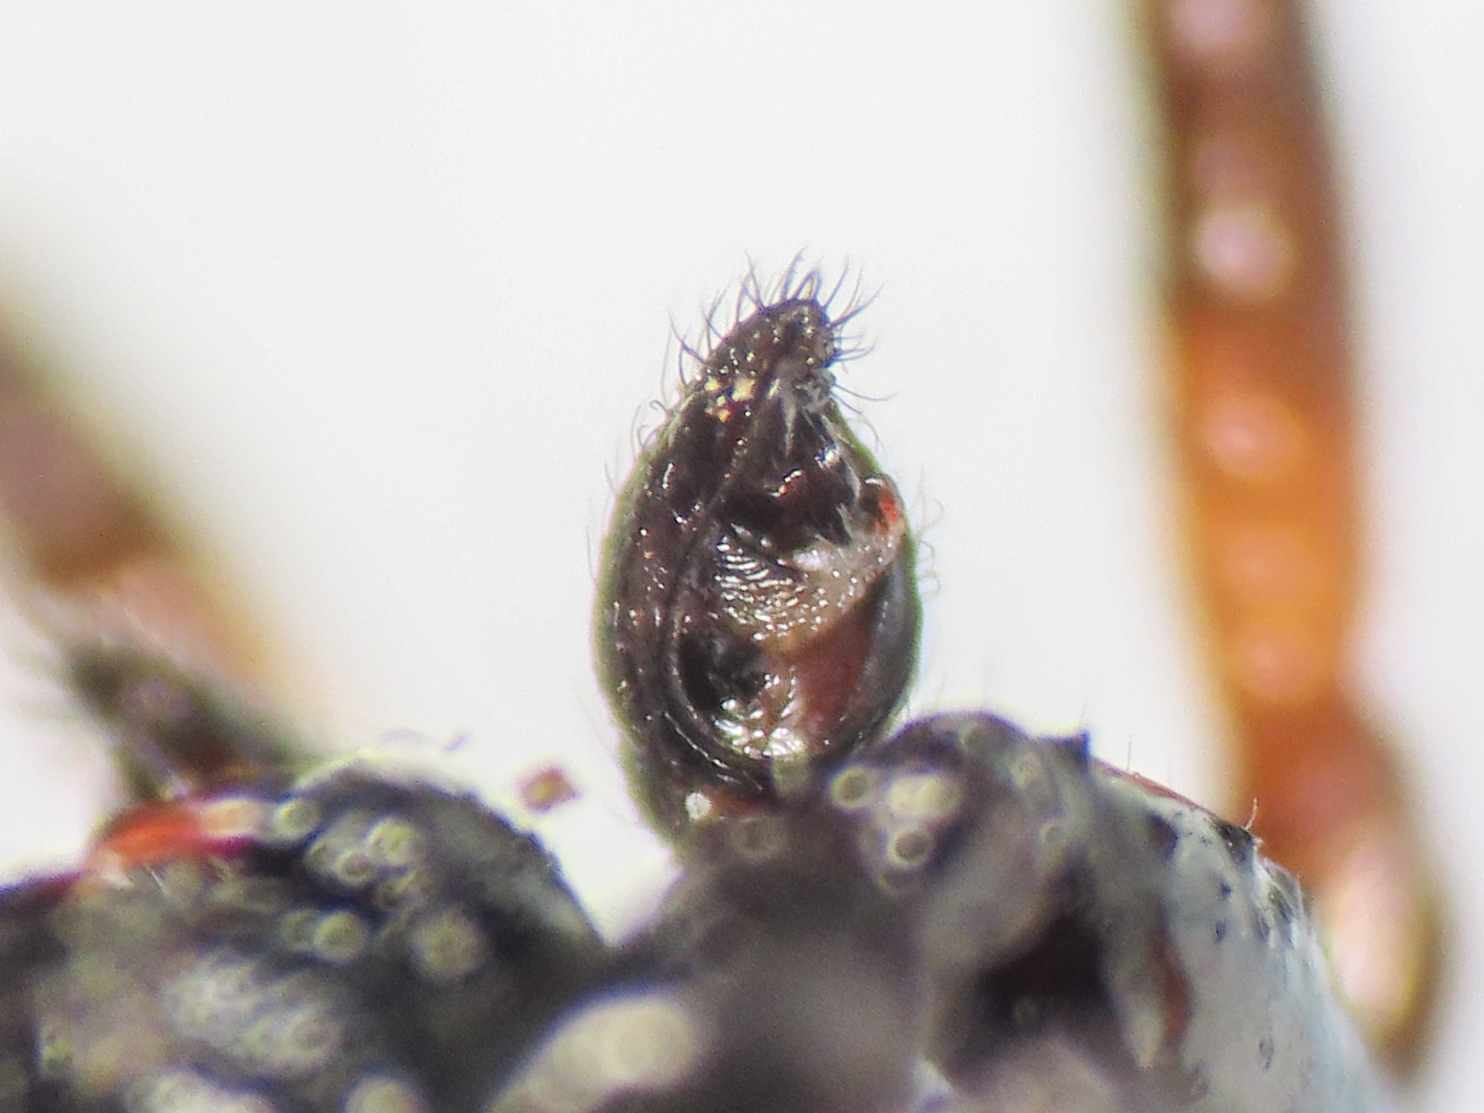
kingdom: Animalia
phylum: Arthropoda
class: Arachnida
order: Araneae
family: Theridiidae
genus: Asagena
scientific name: Asagena italica
